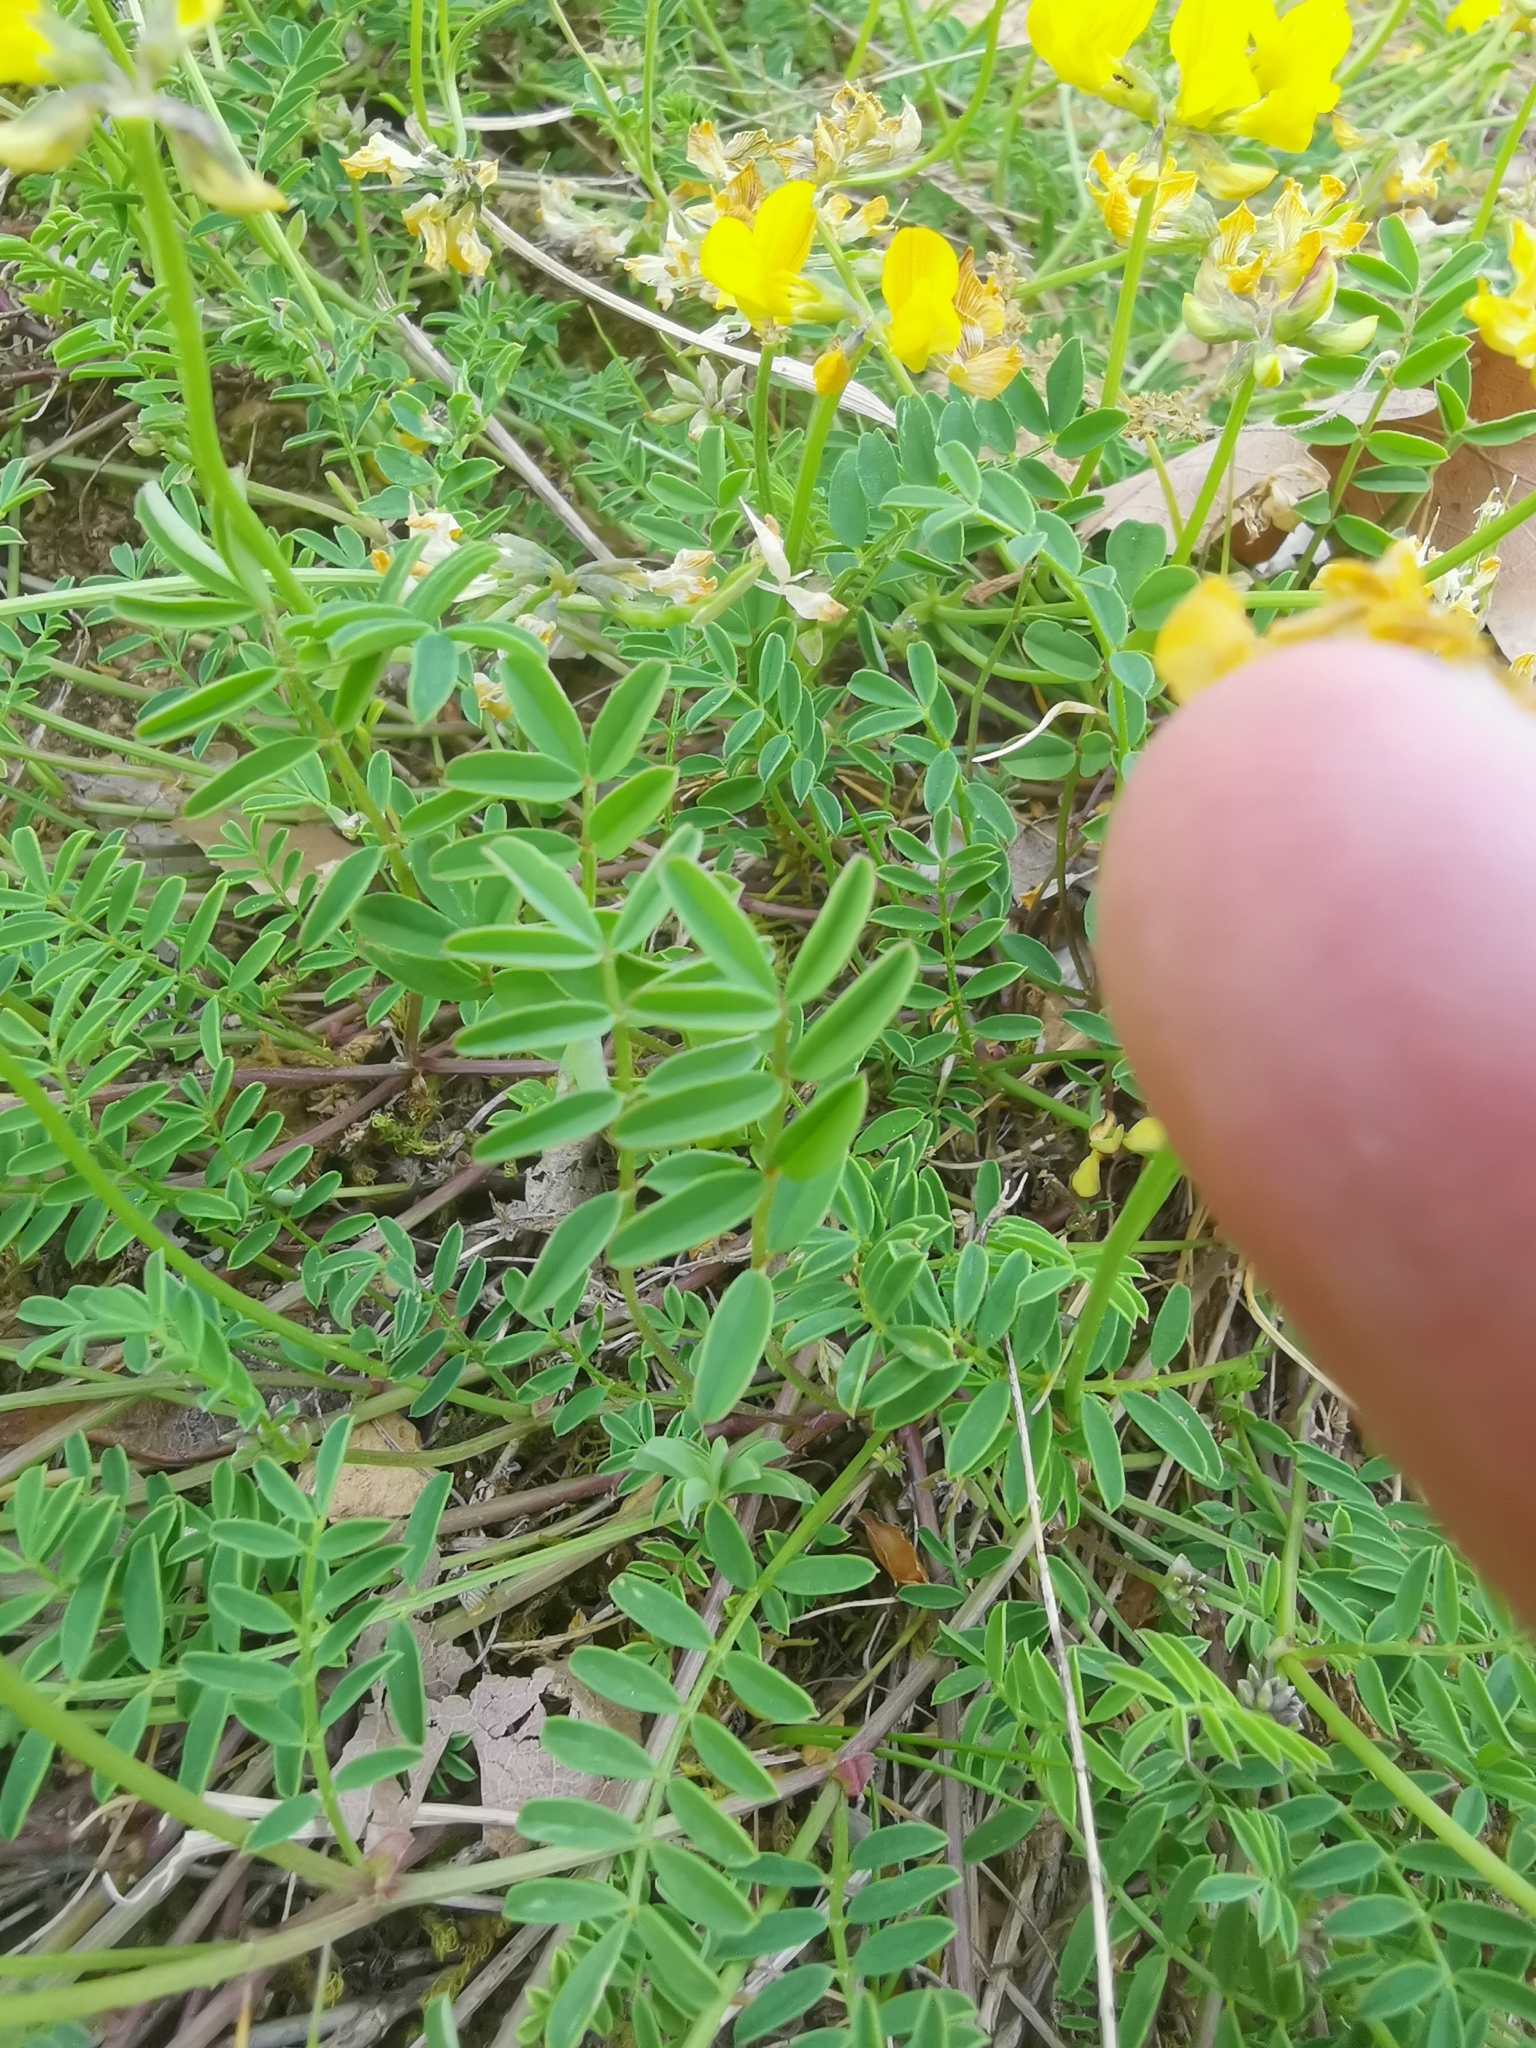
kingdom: Plantae
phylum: Tracheophyta
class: Magnoliopsida
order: Fabales
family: Fabaceae
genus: Hippocrepis
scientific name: Hippocrepis comosa
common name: Horseshoe vetch
